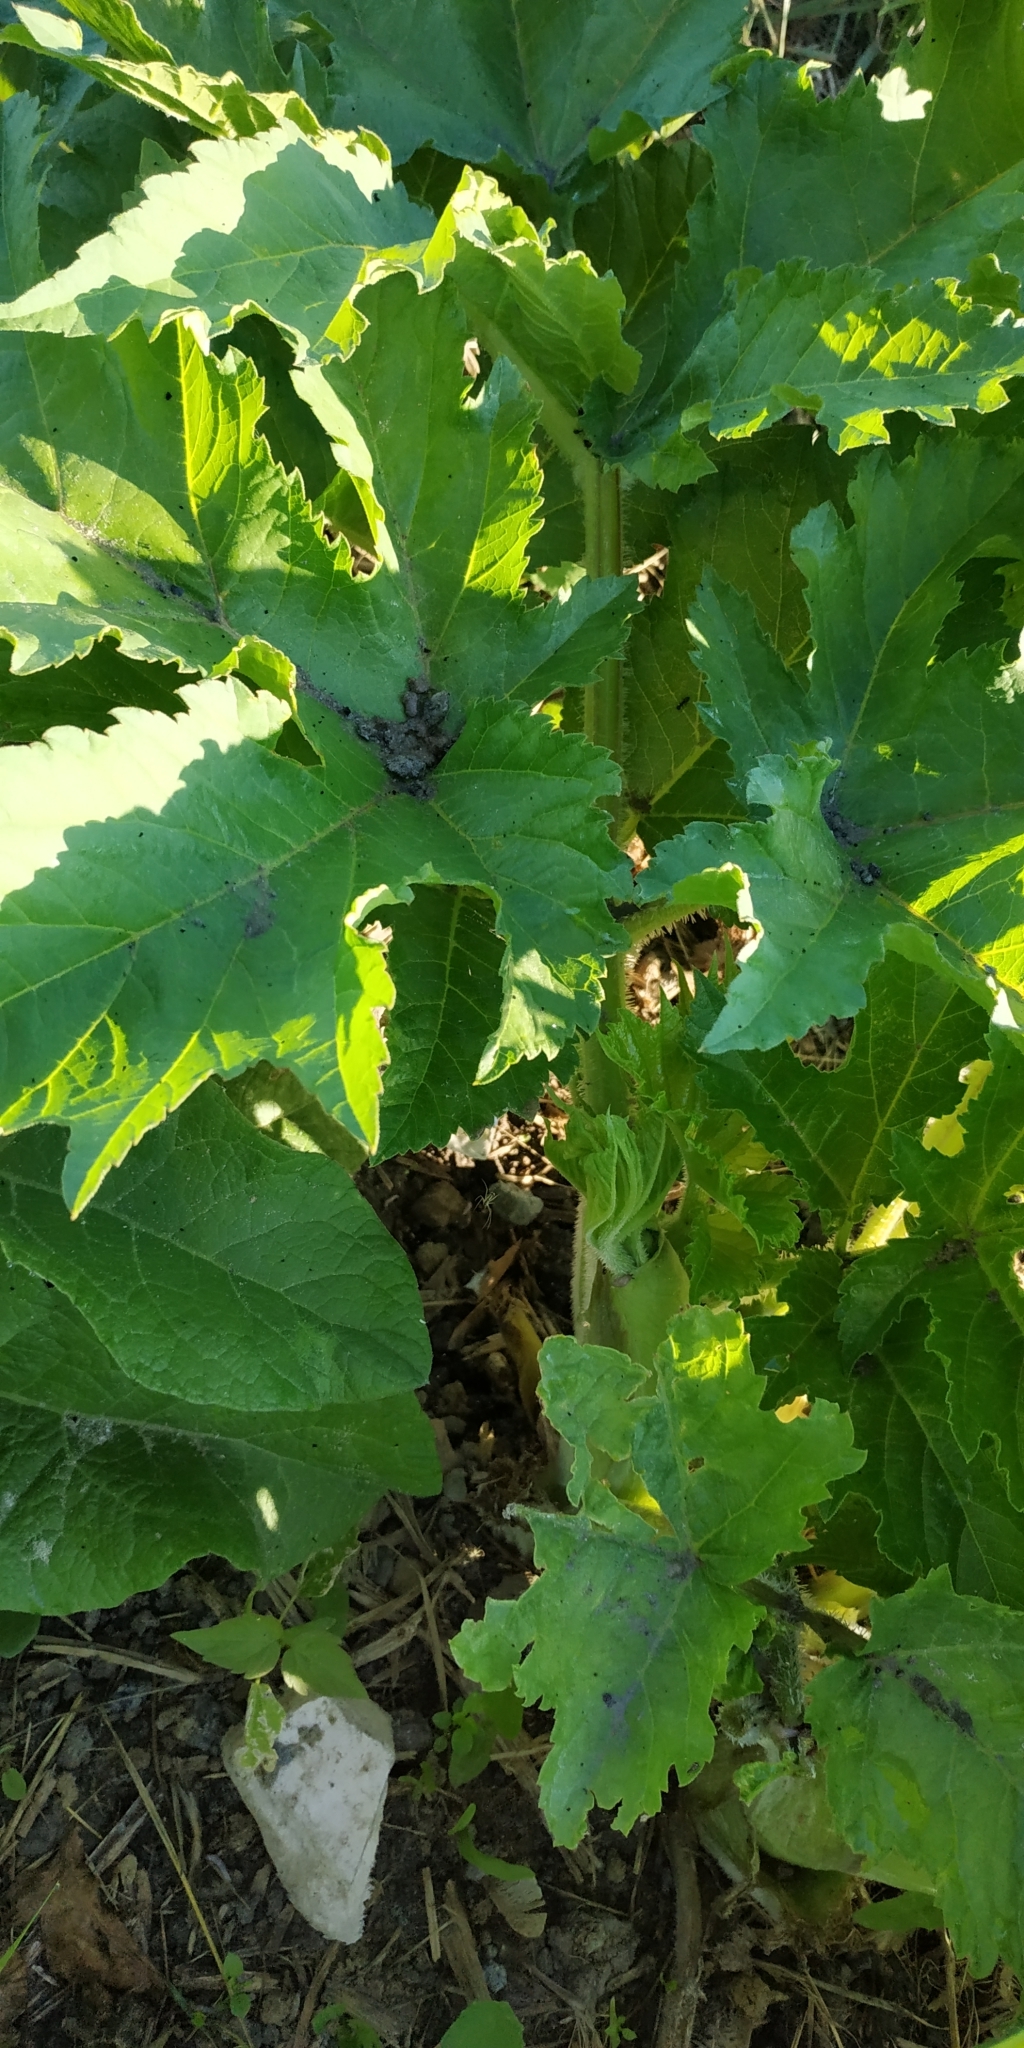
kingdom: Plantae
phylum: Tracheophyta
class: Magnoliopsida
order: Apiales
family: Apiaceae
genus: Heracleum
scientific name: Heracleum sphondylium
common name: Hogweed
